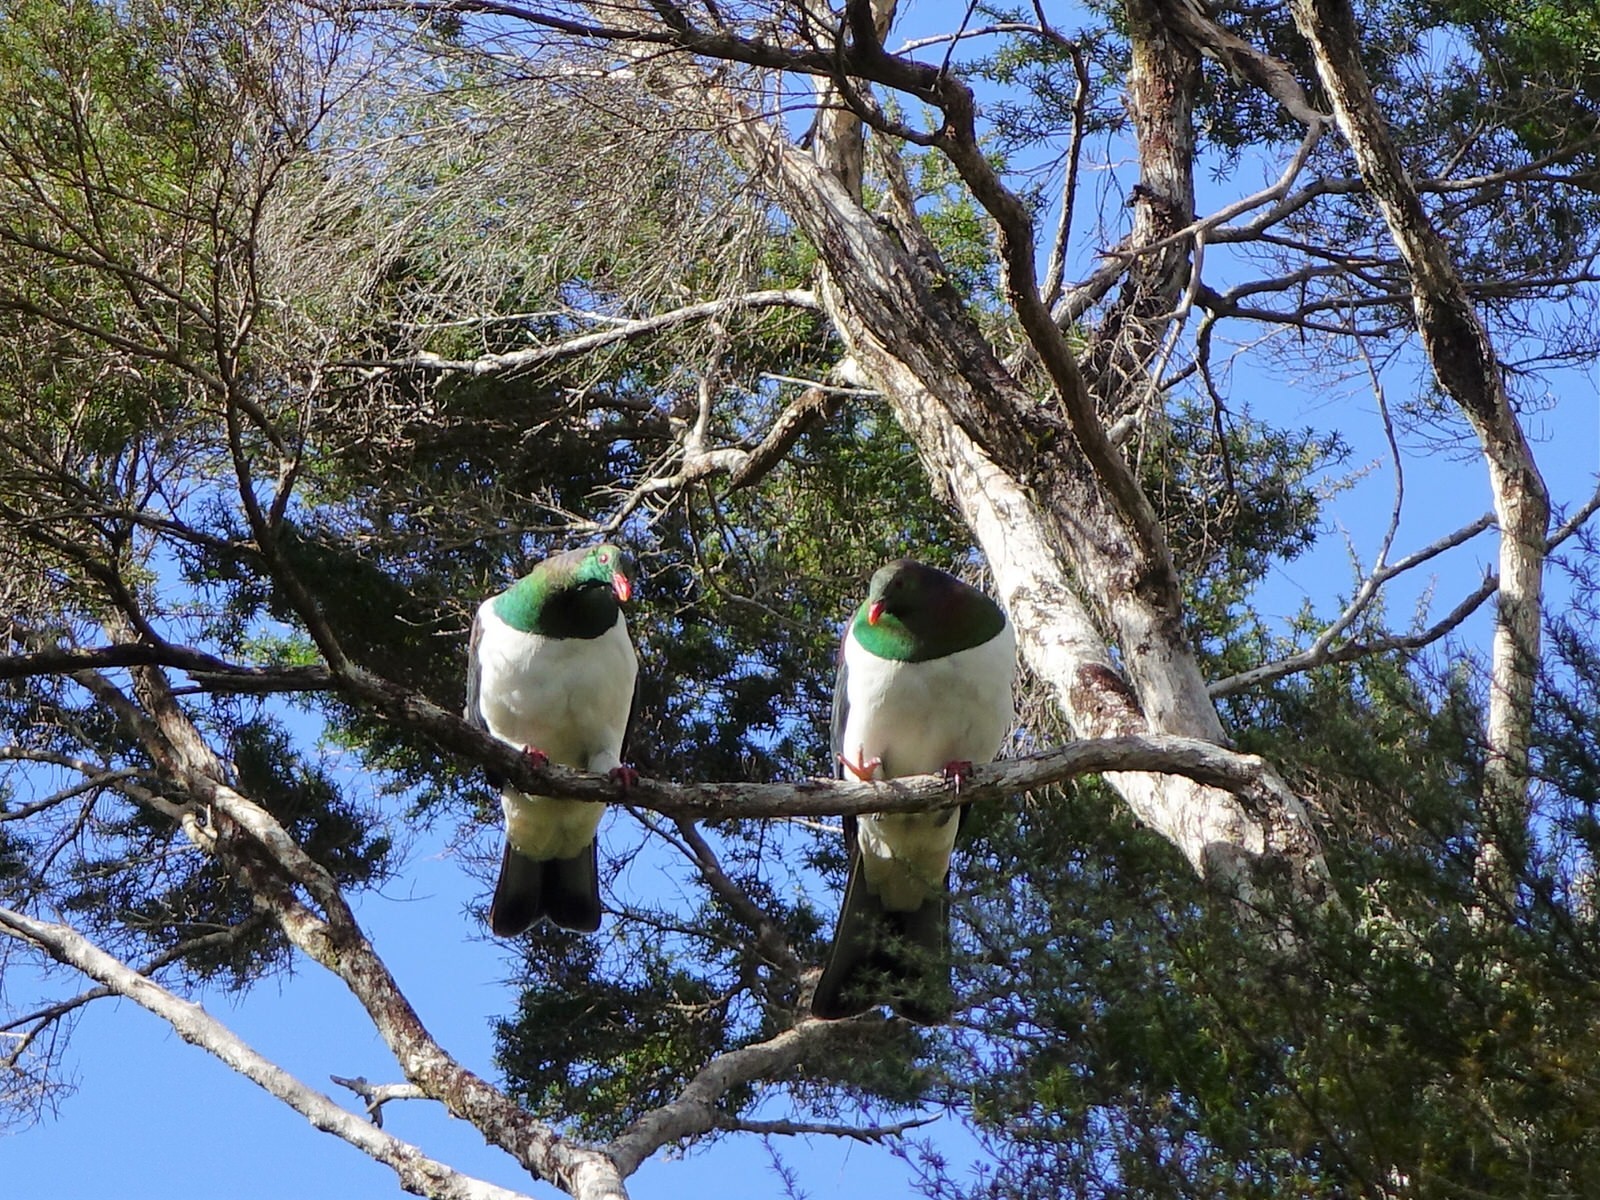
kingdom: Animalia
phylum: Chordata
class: Aves
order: Columbiformes
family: Columbidae
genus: Hemiphaga
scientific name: Hemiphaga novaeseelandiae
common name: New zealand pigeon
